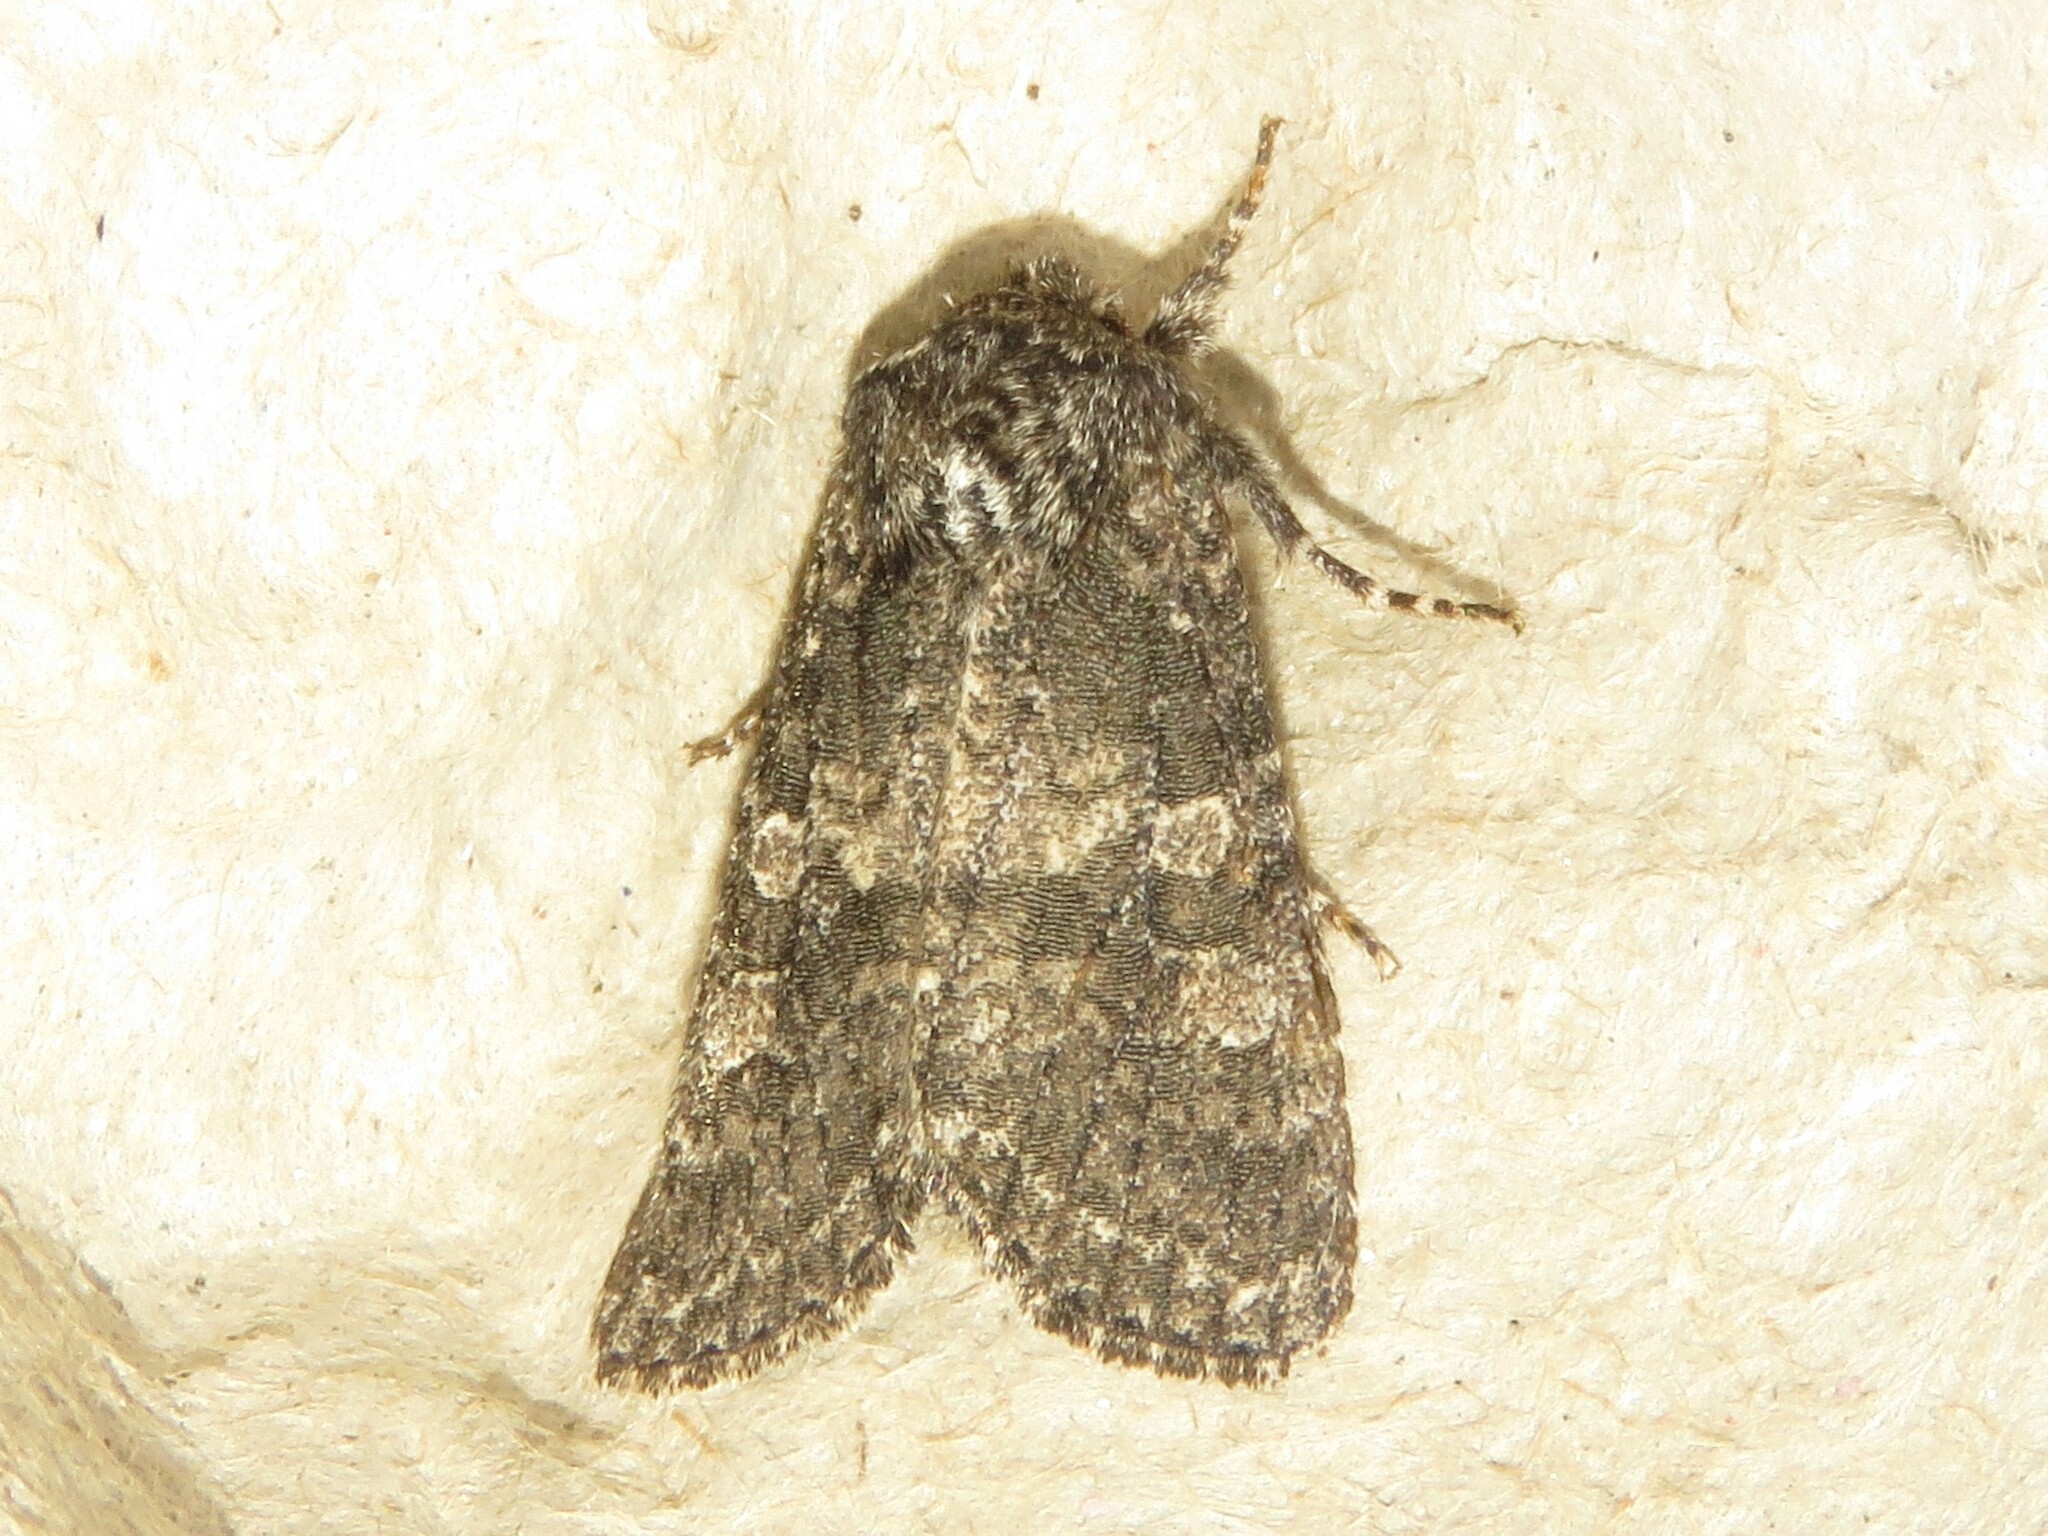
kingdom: Animalia
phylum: Arthropoda
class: Insecta
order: Lepidoptera
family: Noctuidae
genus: Egira
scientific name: Egira dolosa
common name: Lined black aspen cat.
